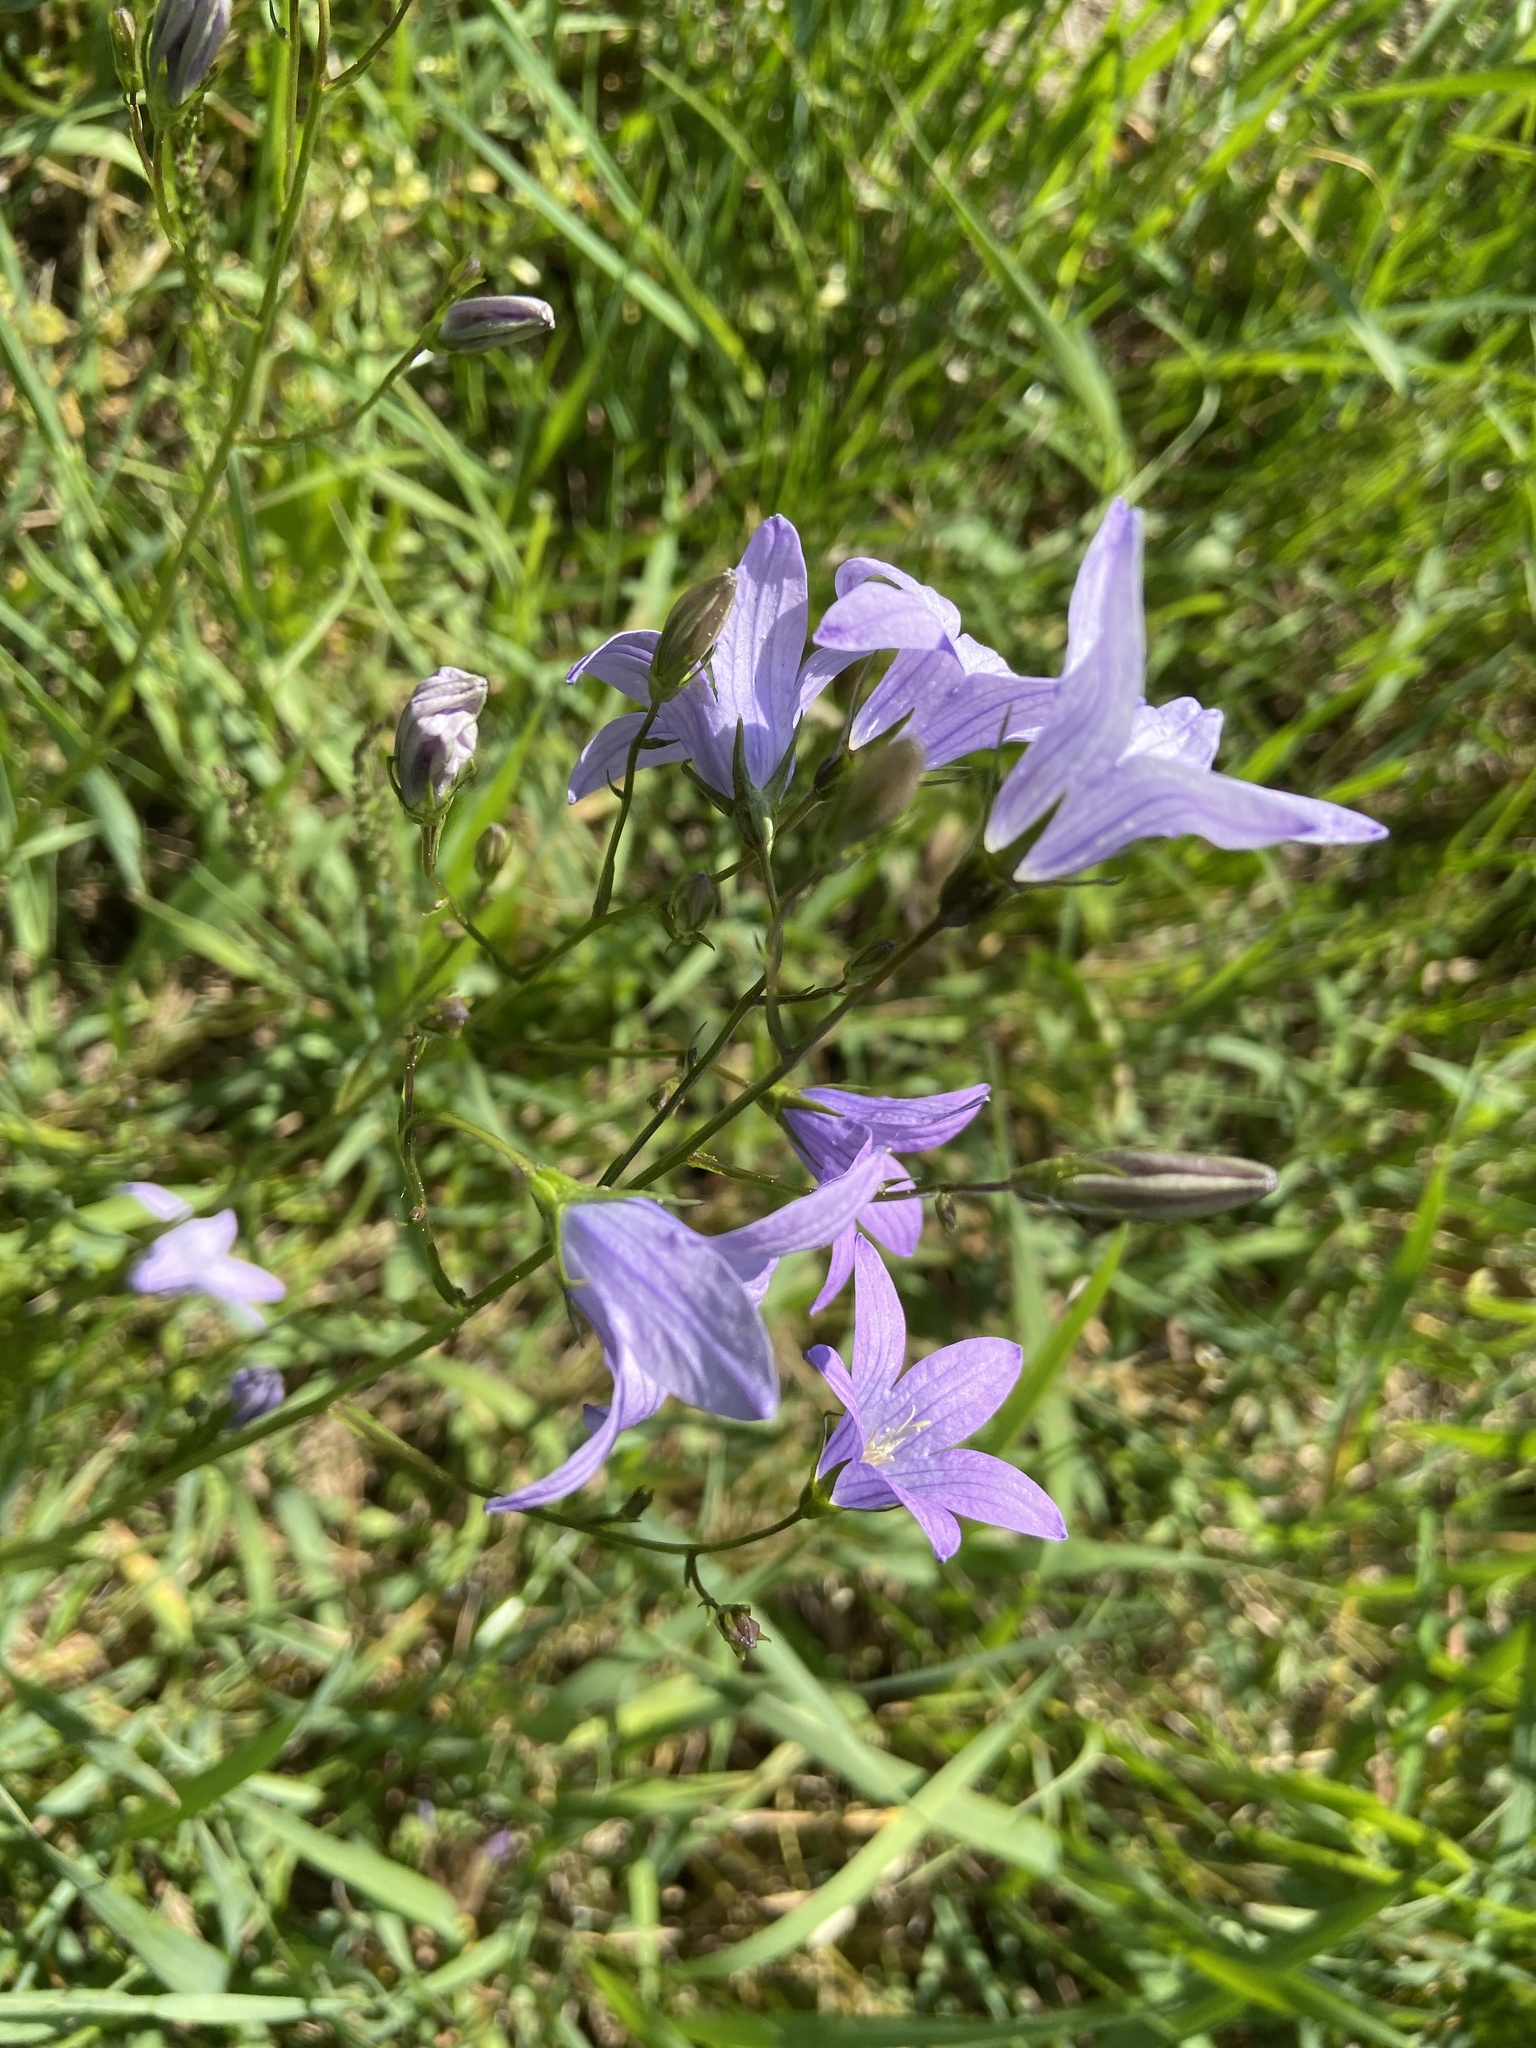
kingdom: Plantae
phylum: Tracheophyta
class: Magnoliopsida
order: Asterales
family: Campanulaceae
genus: Campanula
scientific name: Campanula patula
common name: Spreading bellflower
